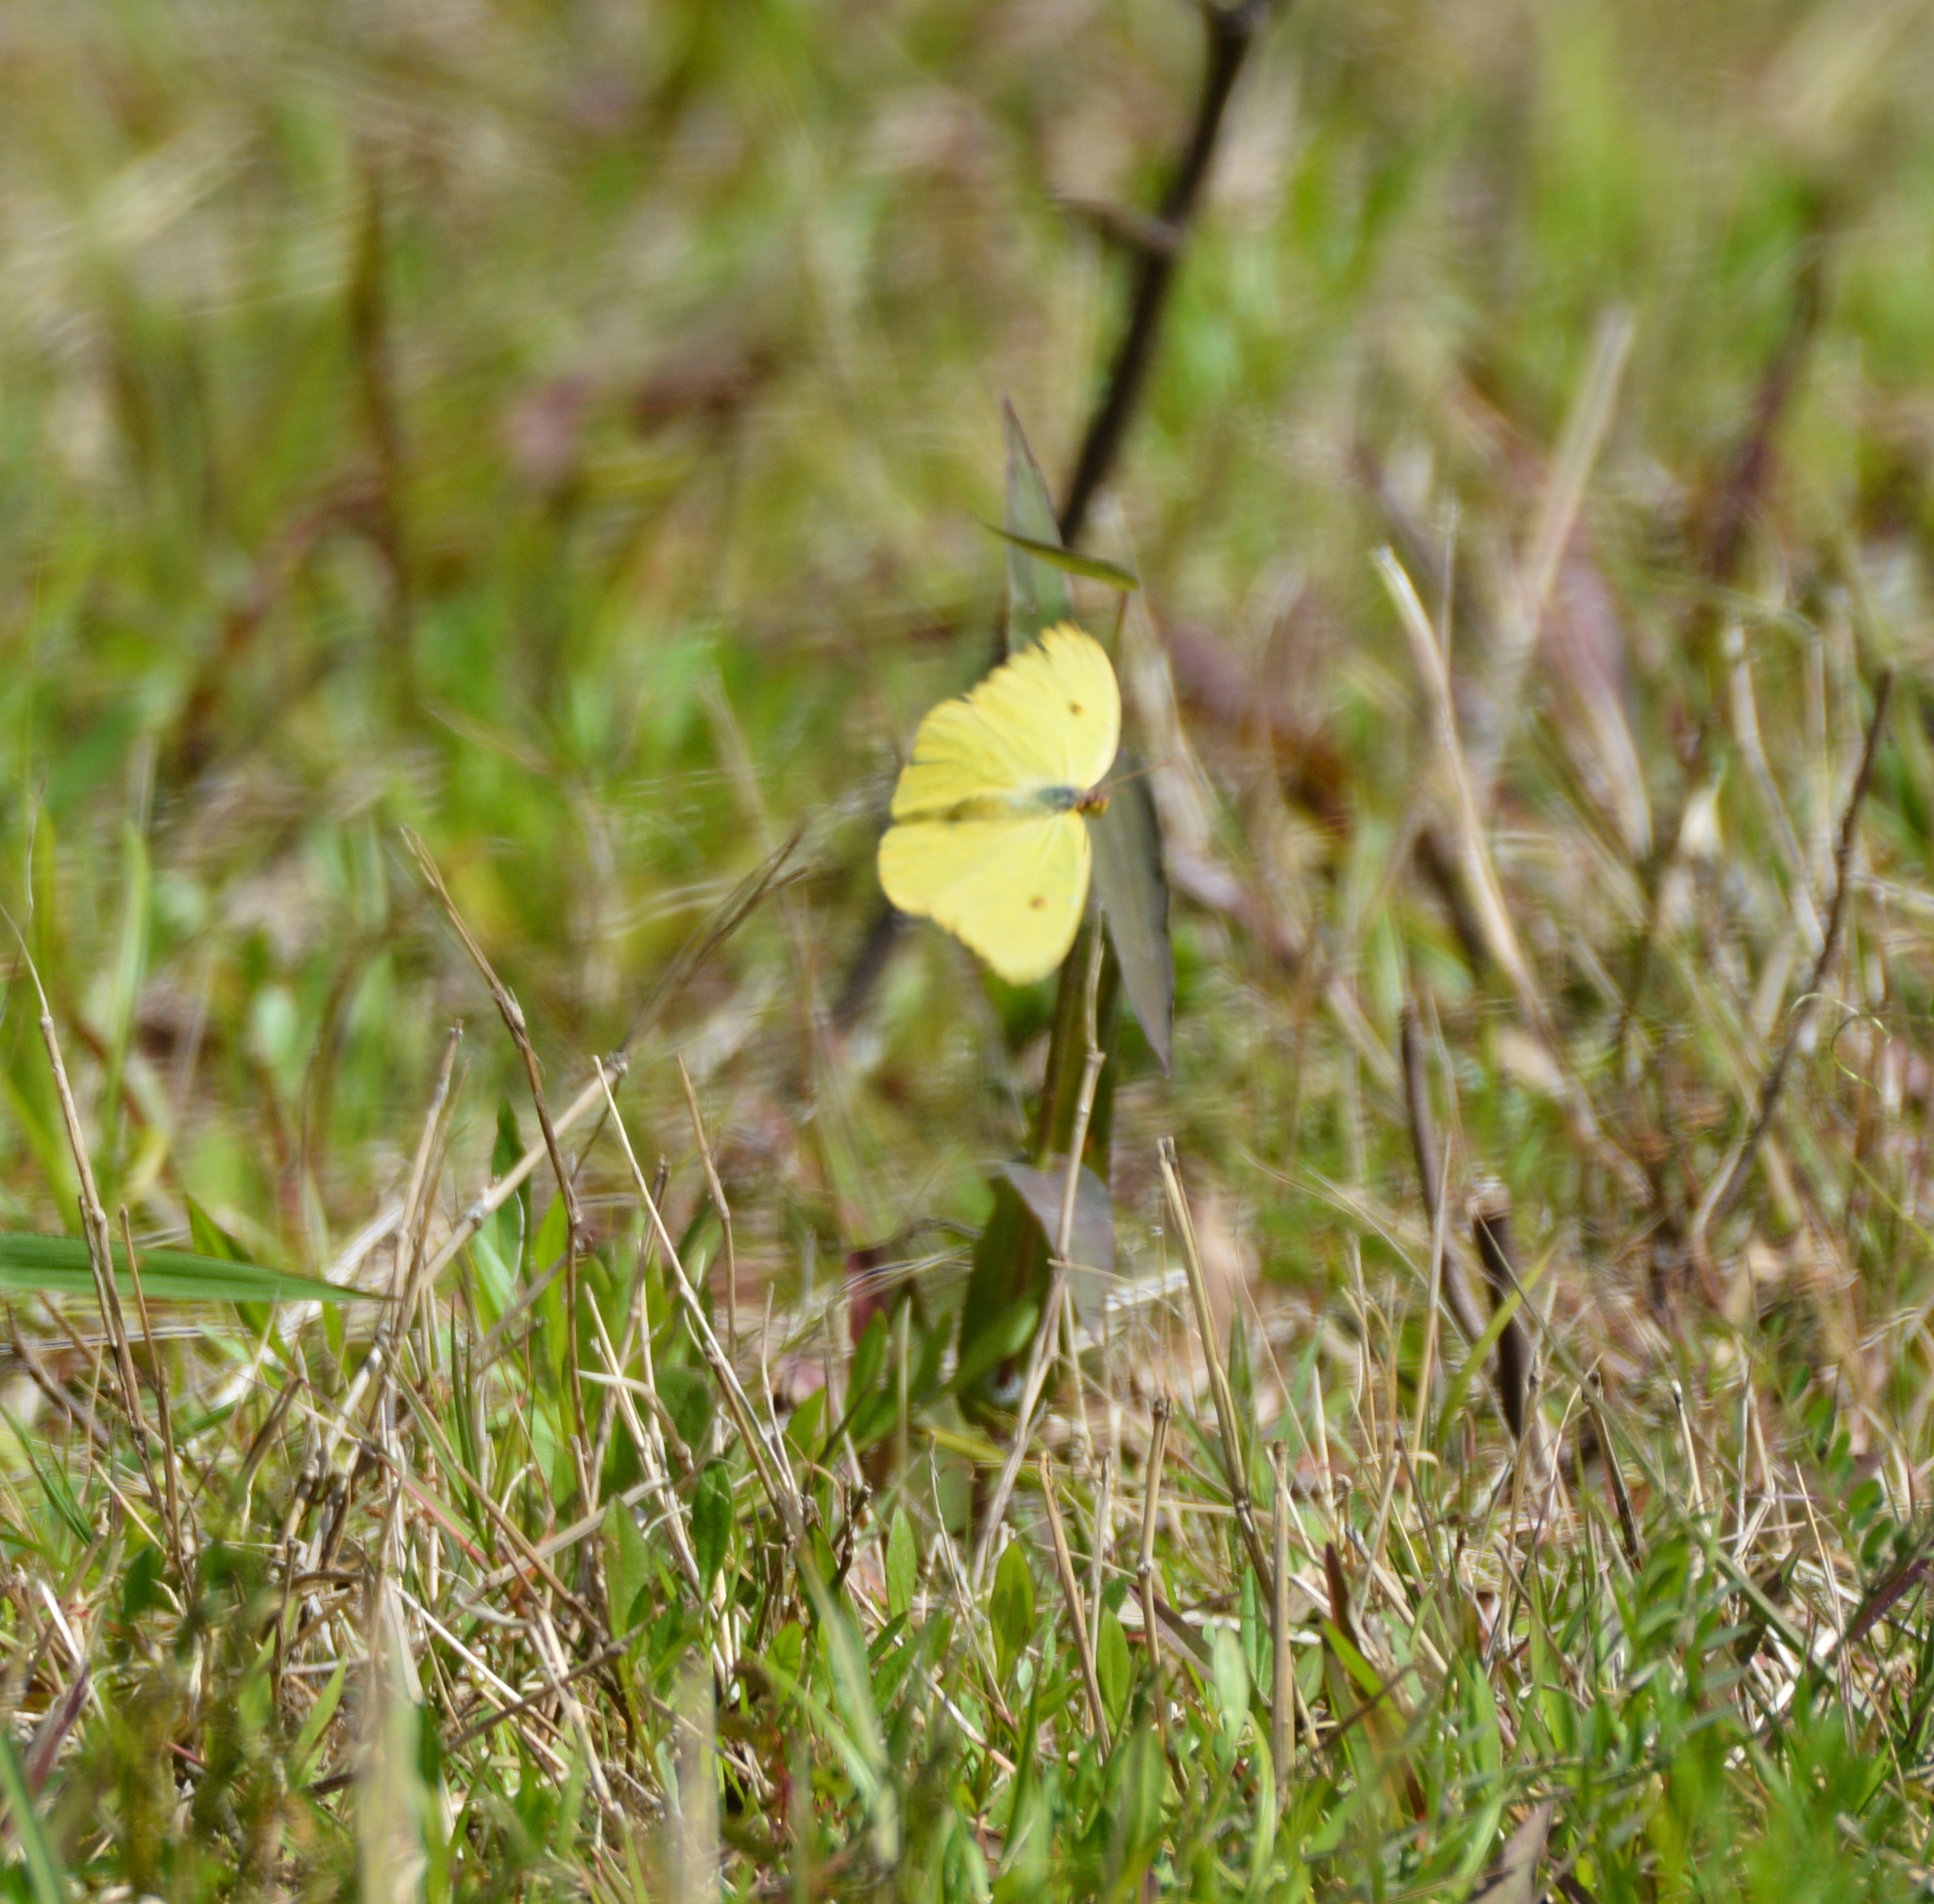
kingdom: Animalia
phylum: Arthropoda
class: Insecta
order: Lepidoptera
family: Pieridae
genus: Phoebis
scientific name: Phoebis sennae
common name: Cloudless sulphur
